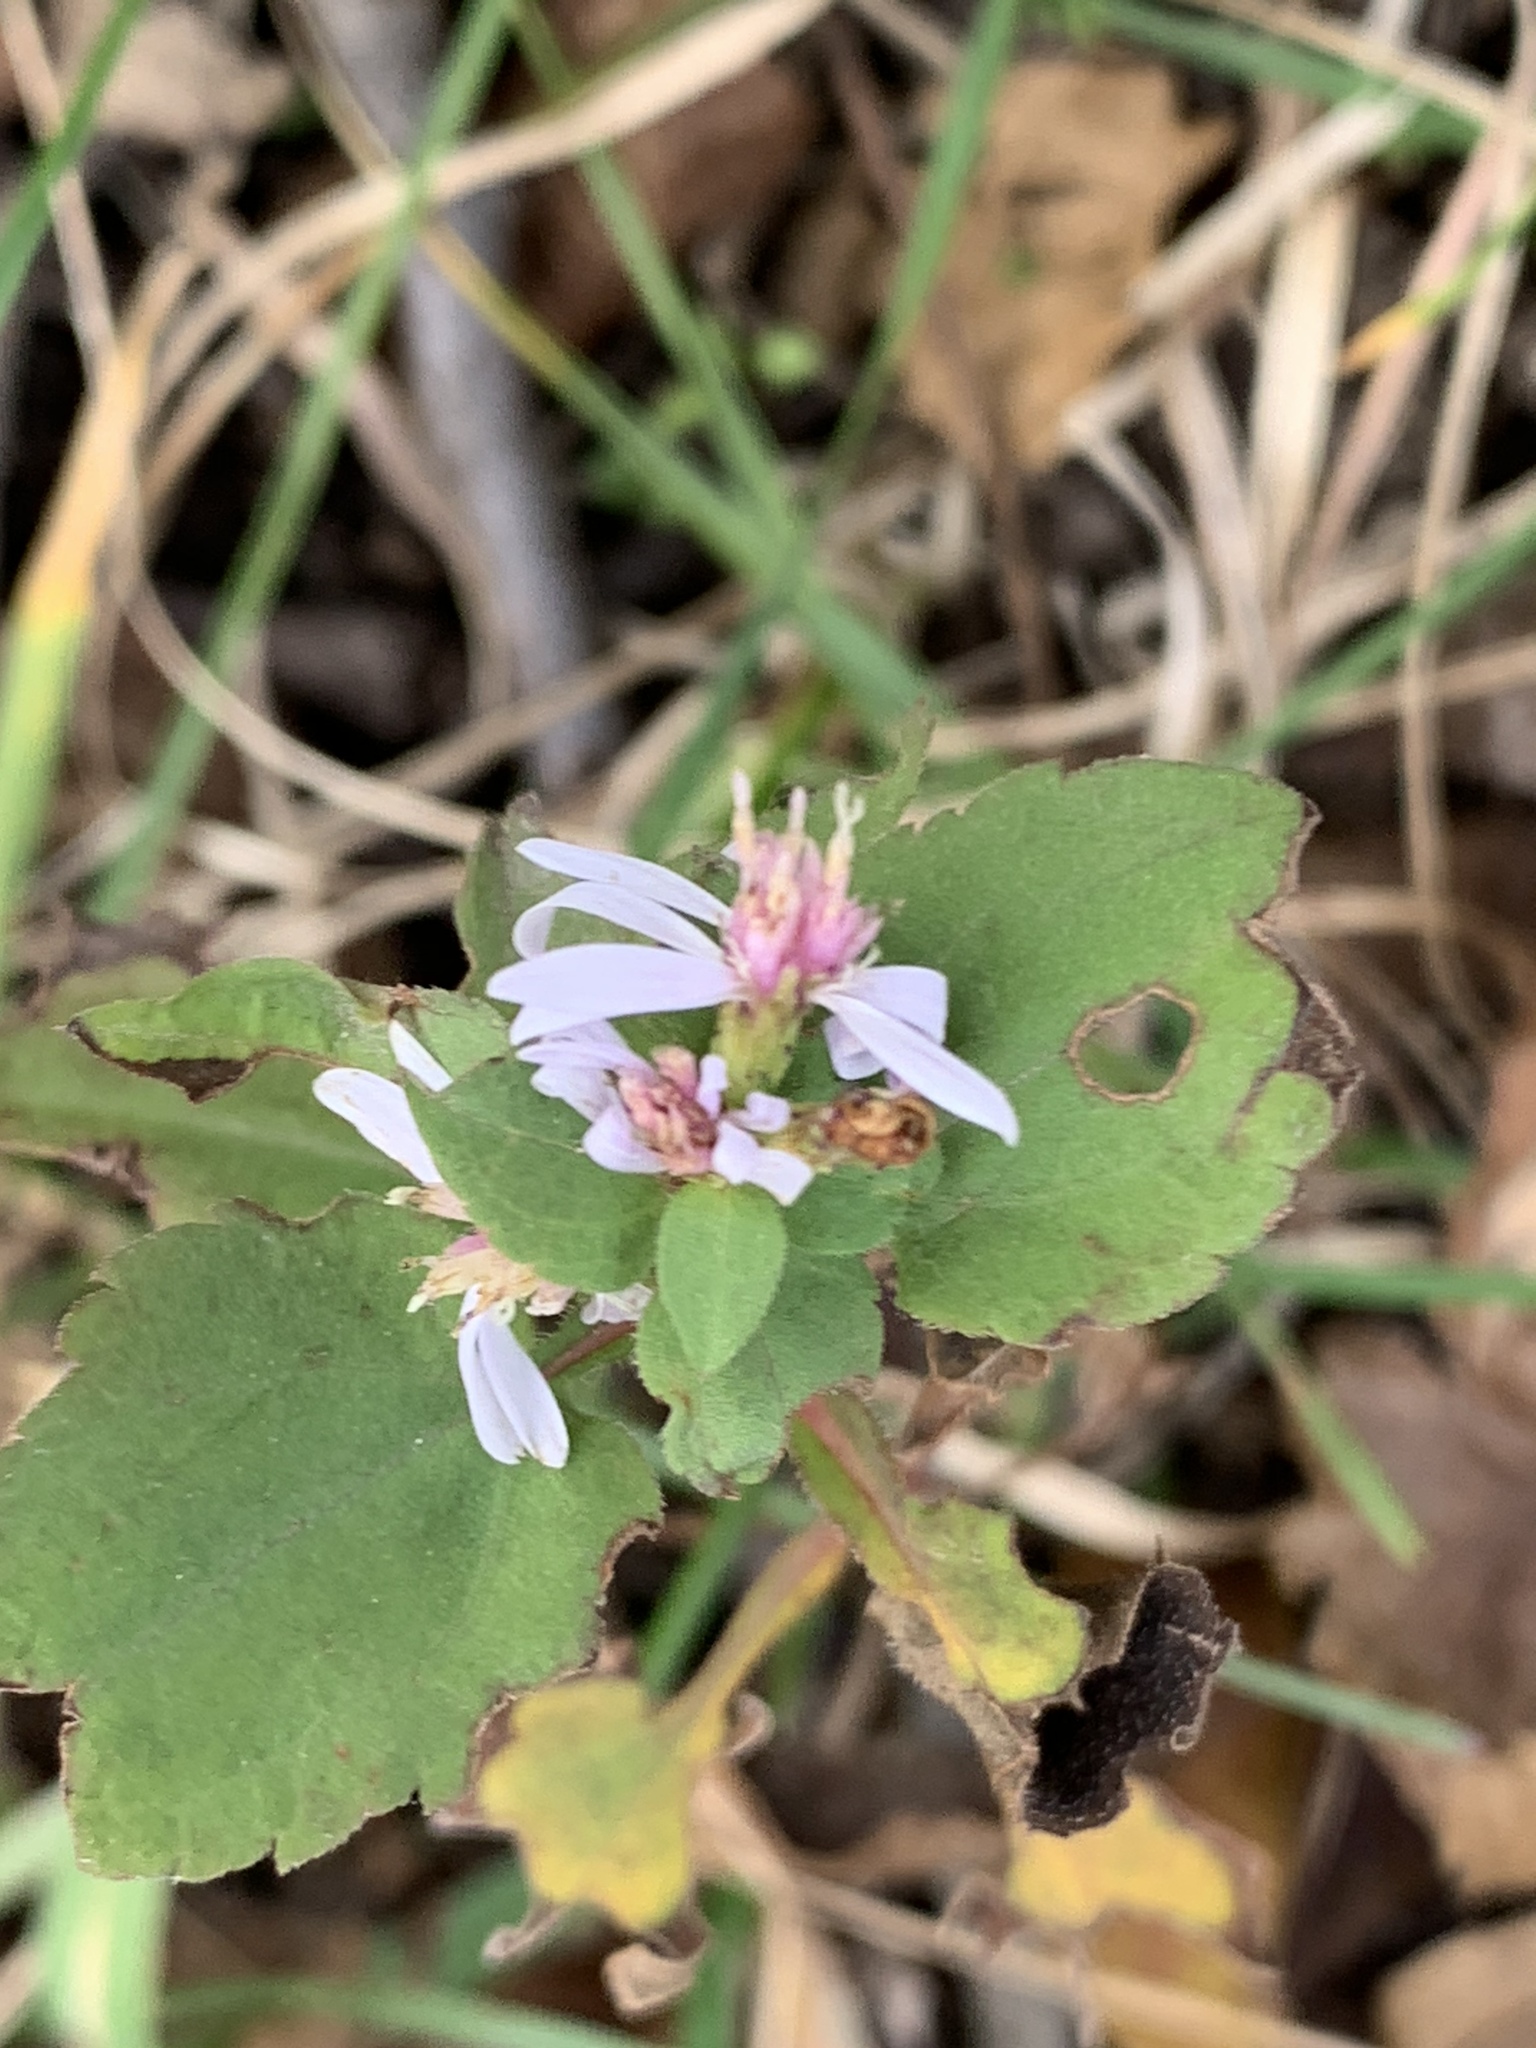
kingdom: Plantae
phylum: Tracheophyta
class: Magnoliopsida
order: Asterales
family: Asteraceae
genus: Symphyotrichum
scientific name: Symphyotrichum cordifolium
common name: Beeweed
